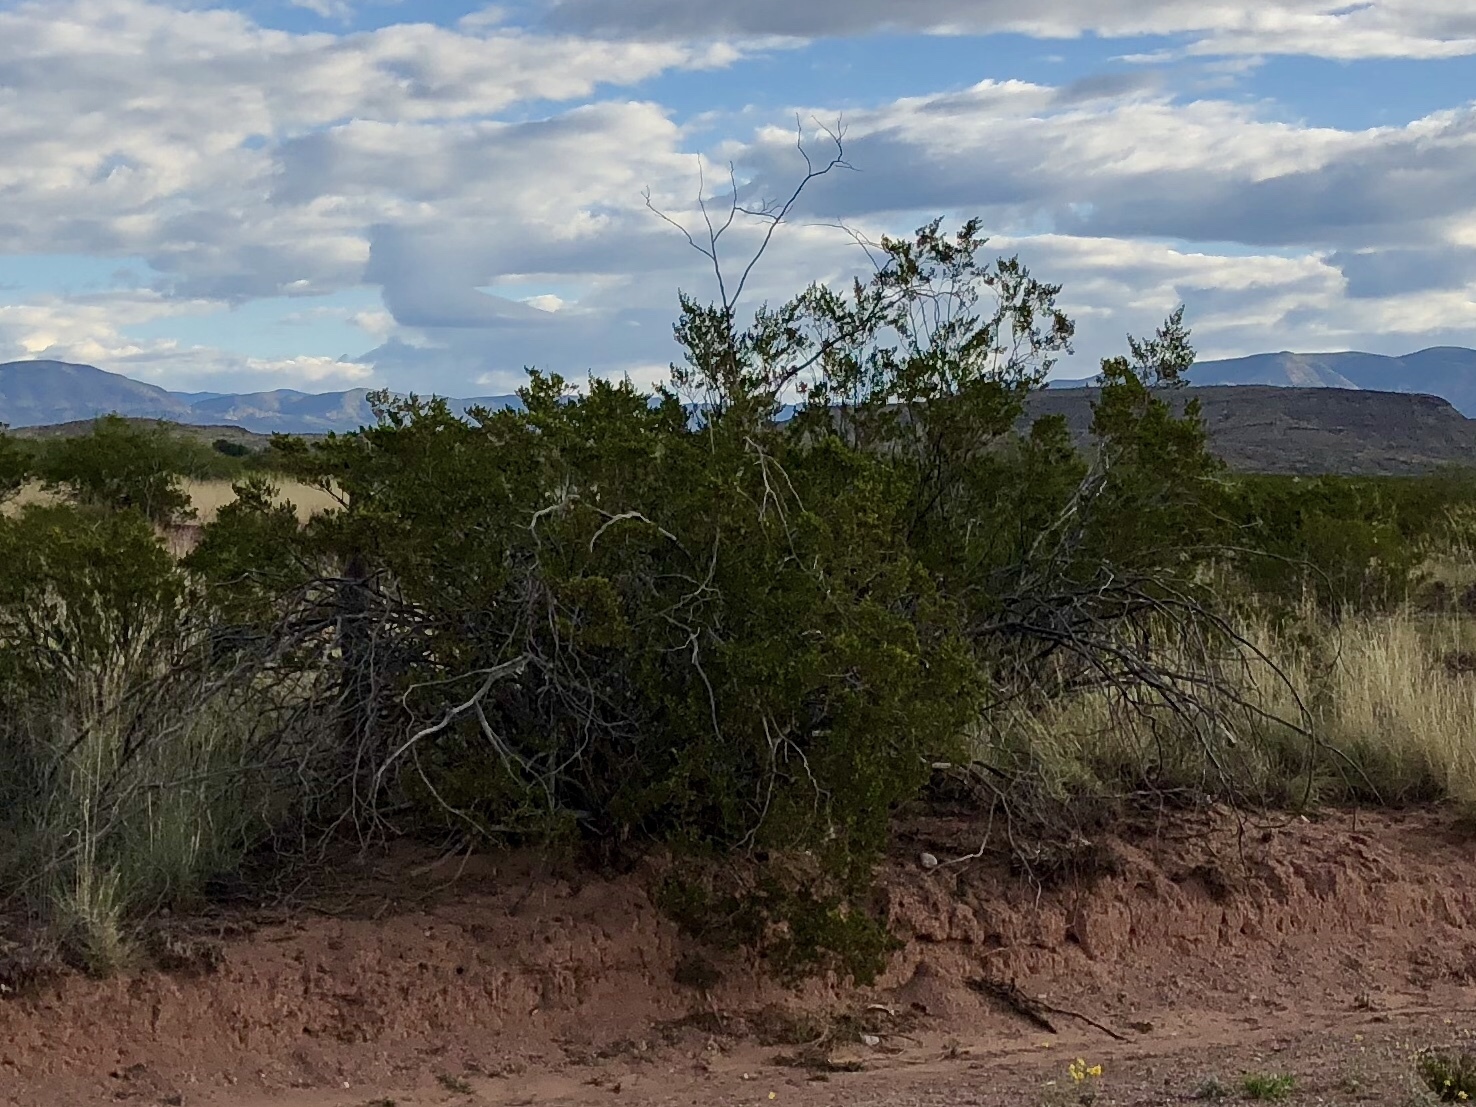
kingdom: Plantae
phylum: Tracheophyta
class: Magnoliopsida
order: Zygophyllales
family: Zygophyllaceae
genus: Larrea
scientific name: Larrea tridentata
